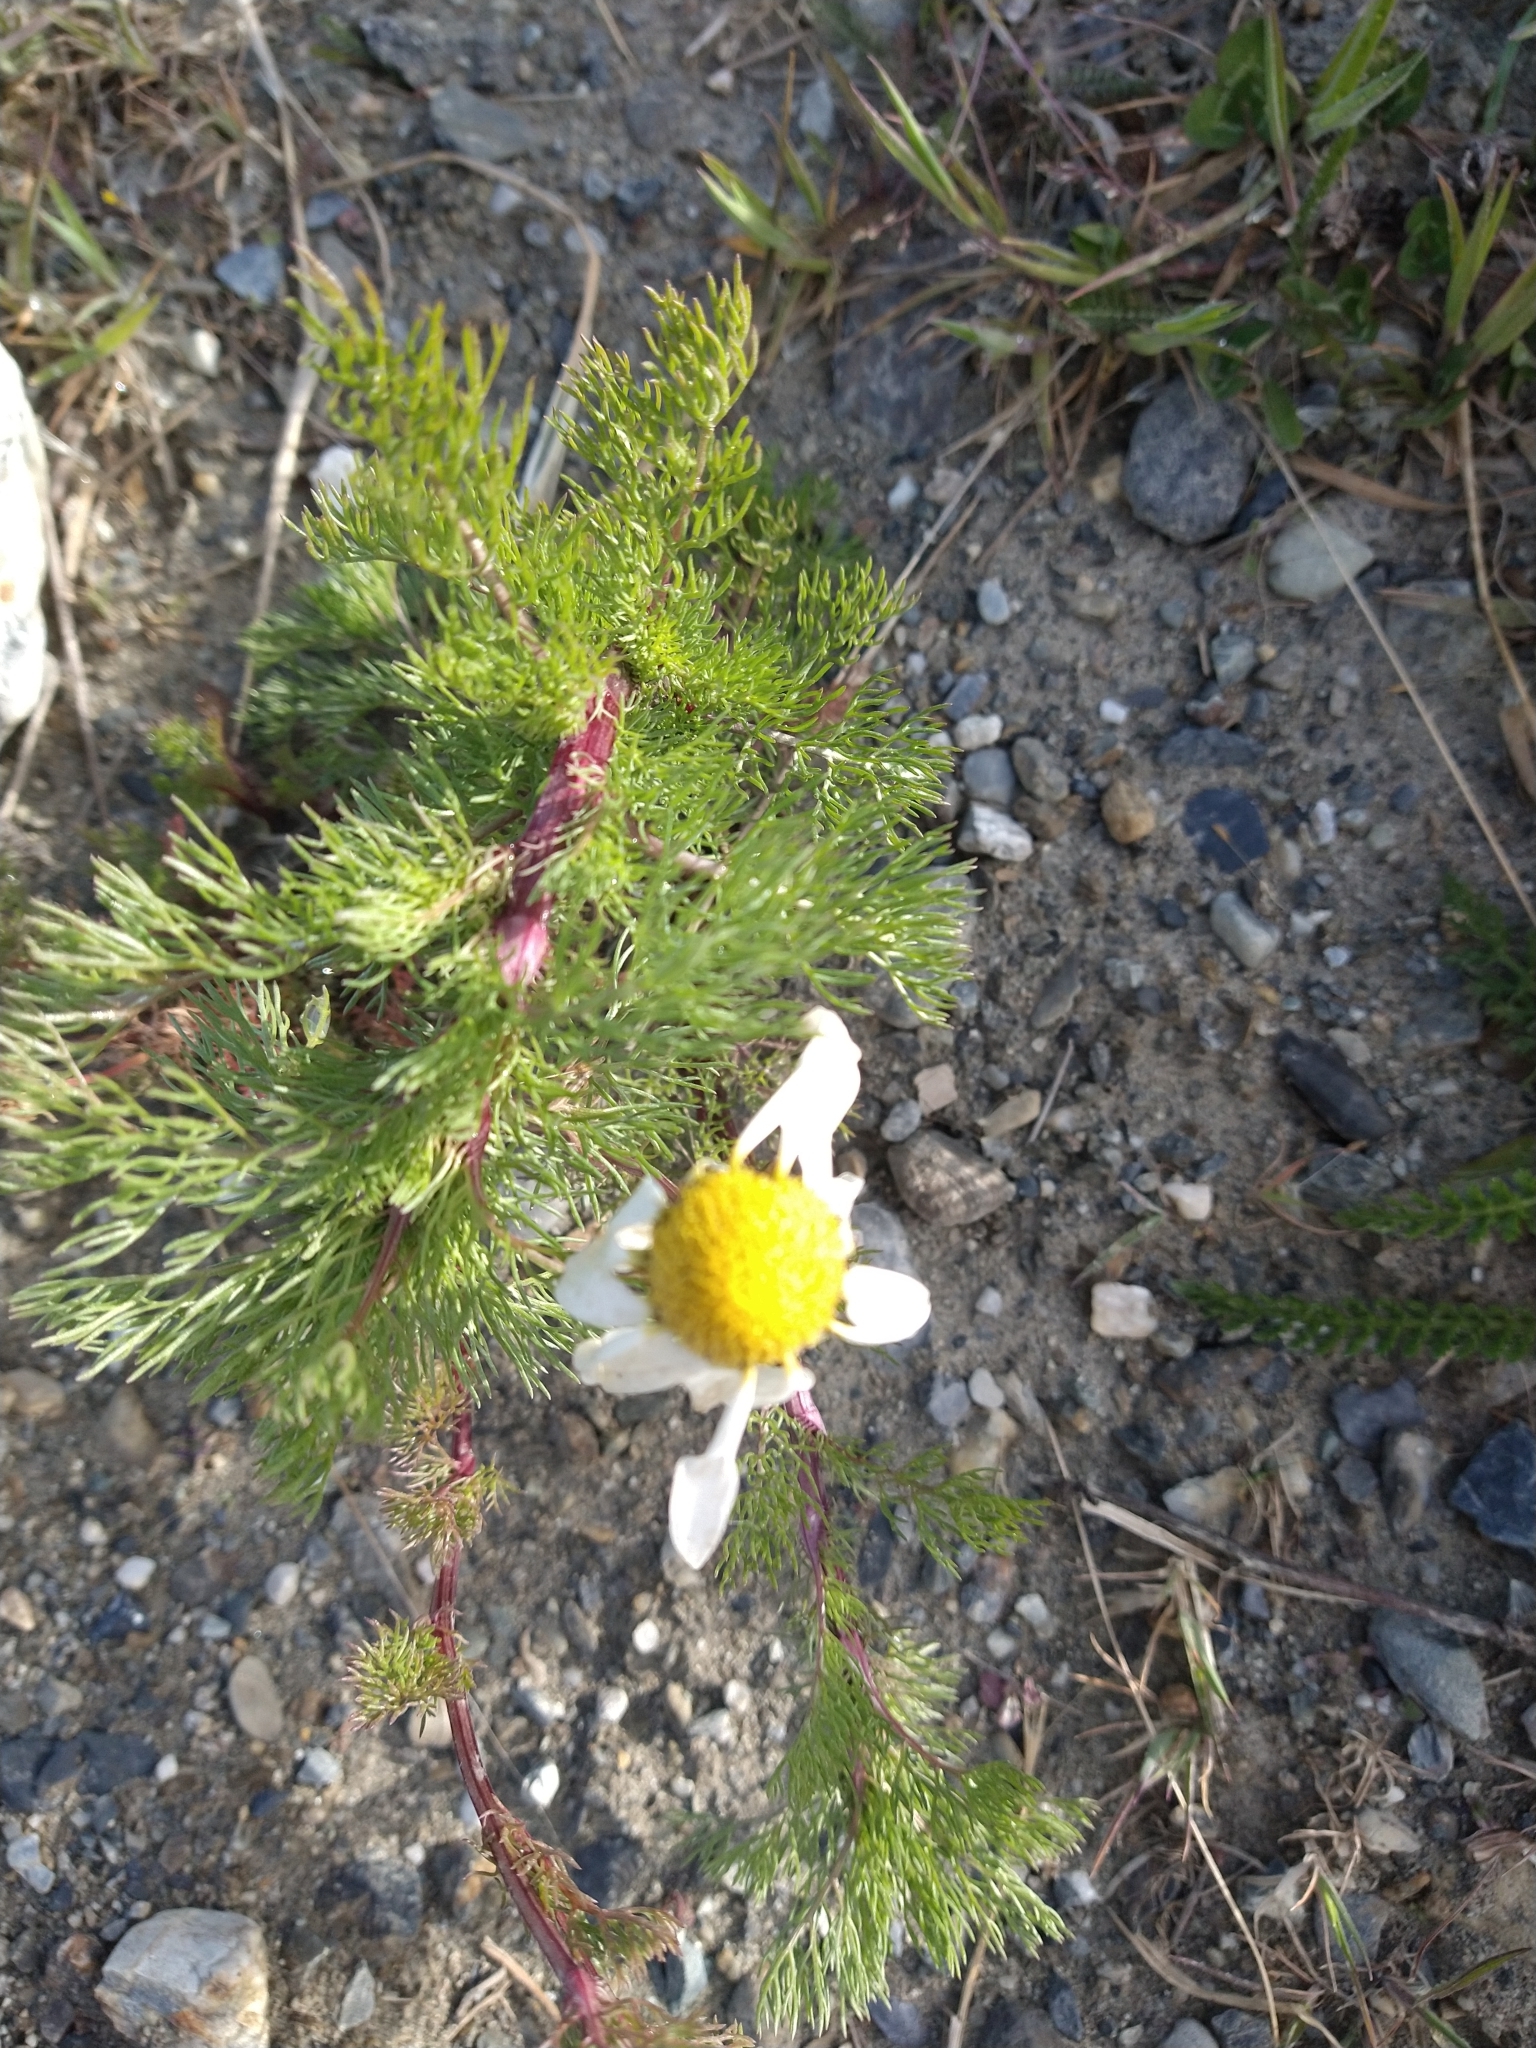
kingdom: Plantae
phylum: Tracheophyta
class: Magnoliopsida
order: Asterales
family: Asteraceae
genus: Tripleurospermum
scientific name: Tripleurospermum inodorum
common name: Scentless mayweed
